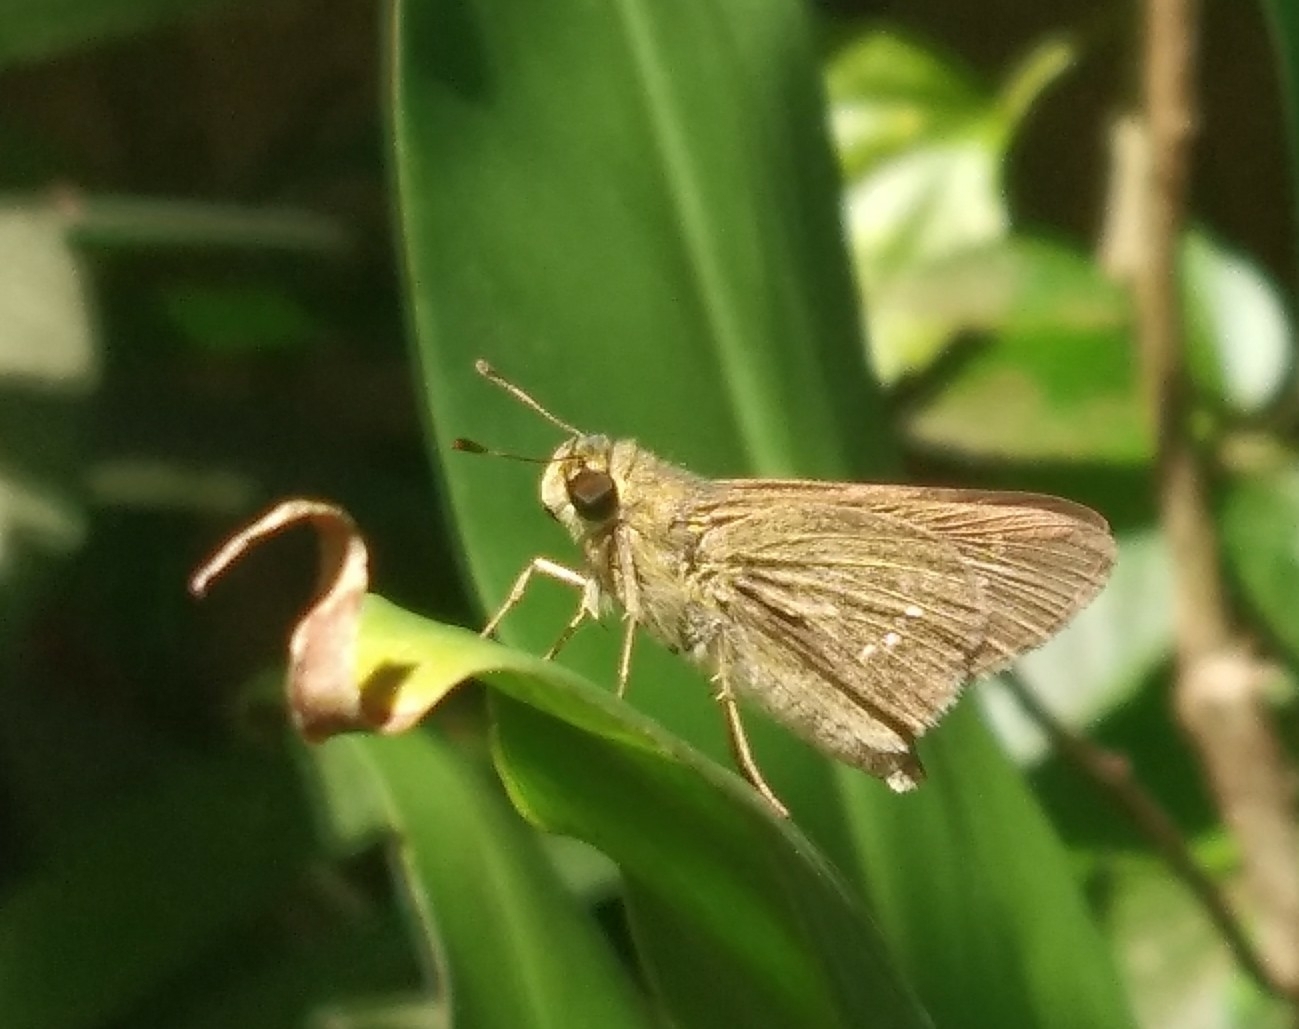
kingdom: Animalia
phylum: Arthropoda
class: Insecta
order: Lepidoptera
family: Hesperiidae
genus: Parnara
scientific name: Parnara naso
